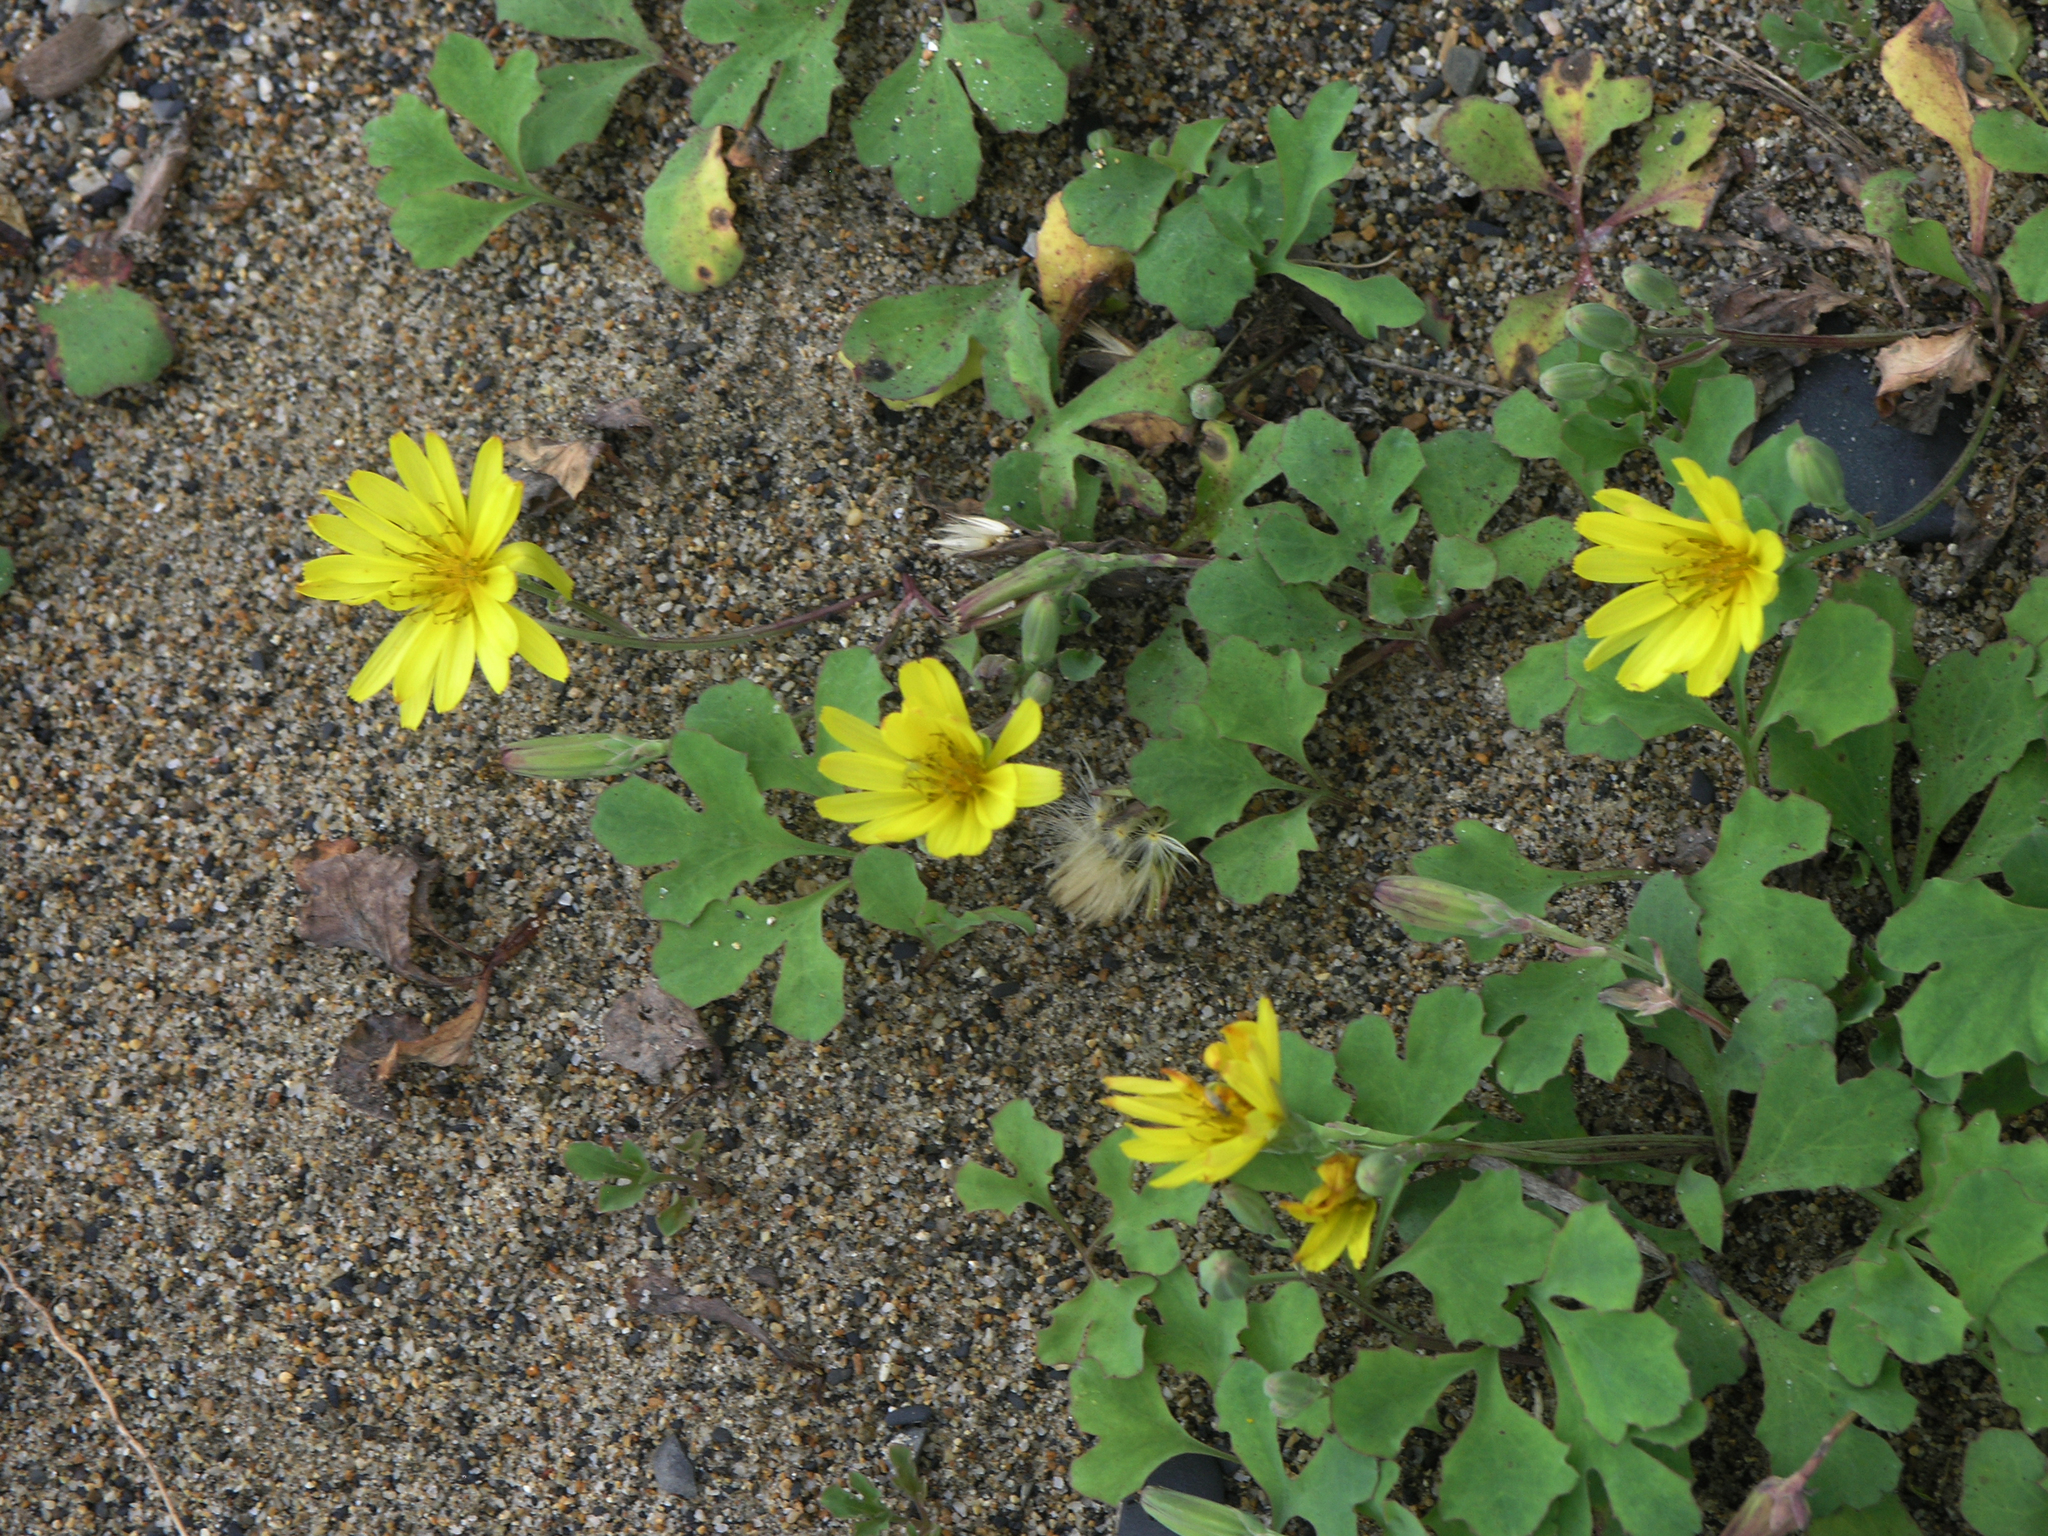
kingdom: Plantae
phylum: Tracheophyta
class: Magnoliopsida
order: Asterales
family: Asteraceae
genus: Ixeris
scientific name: Ixeris repens
